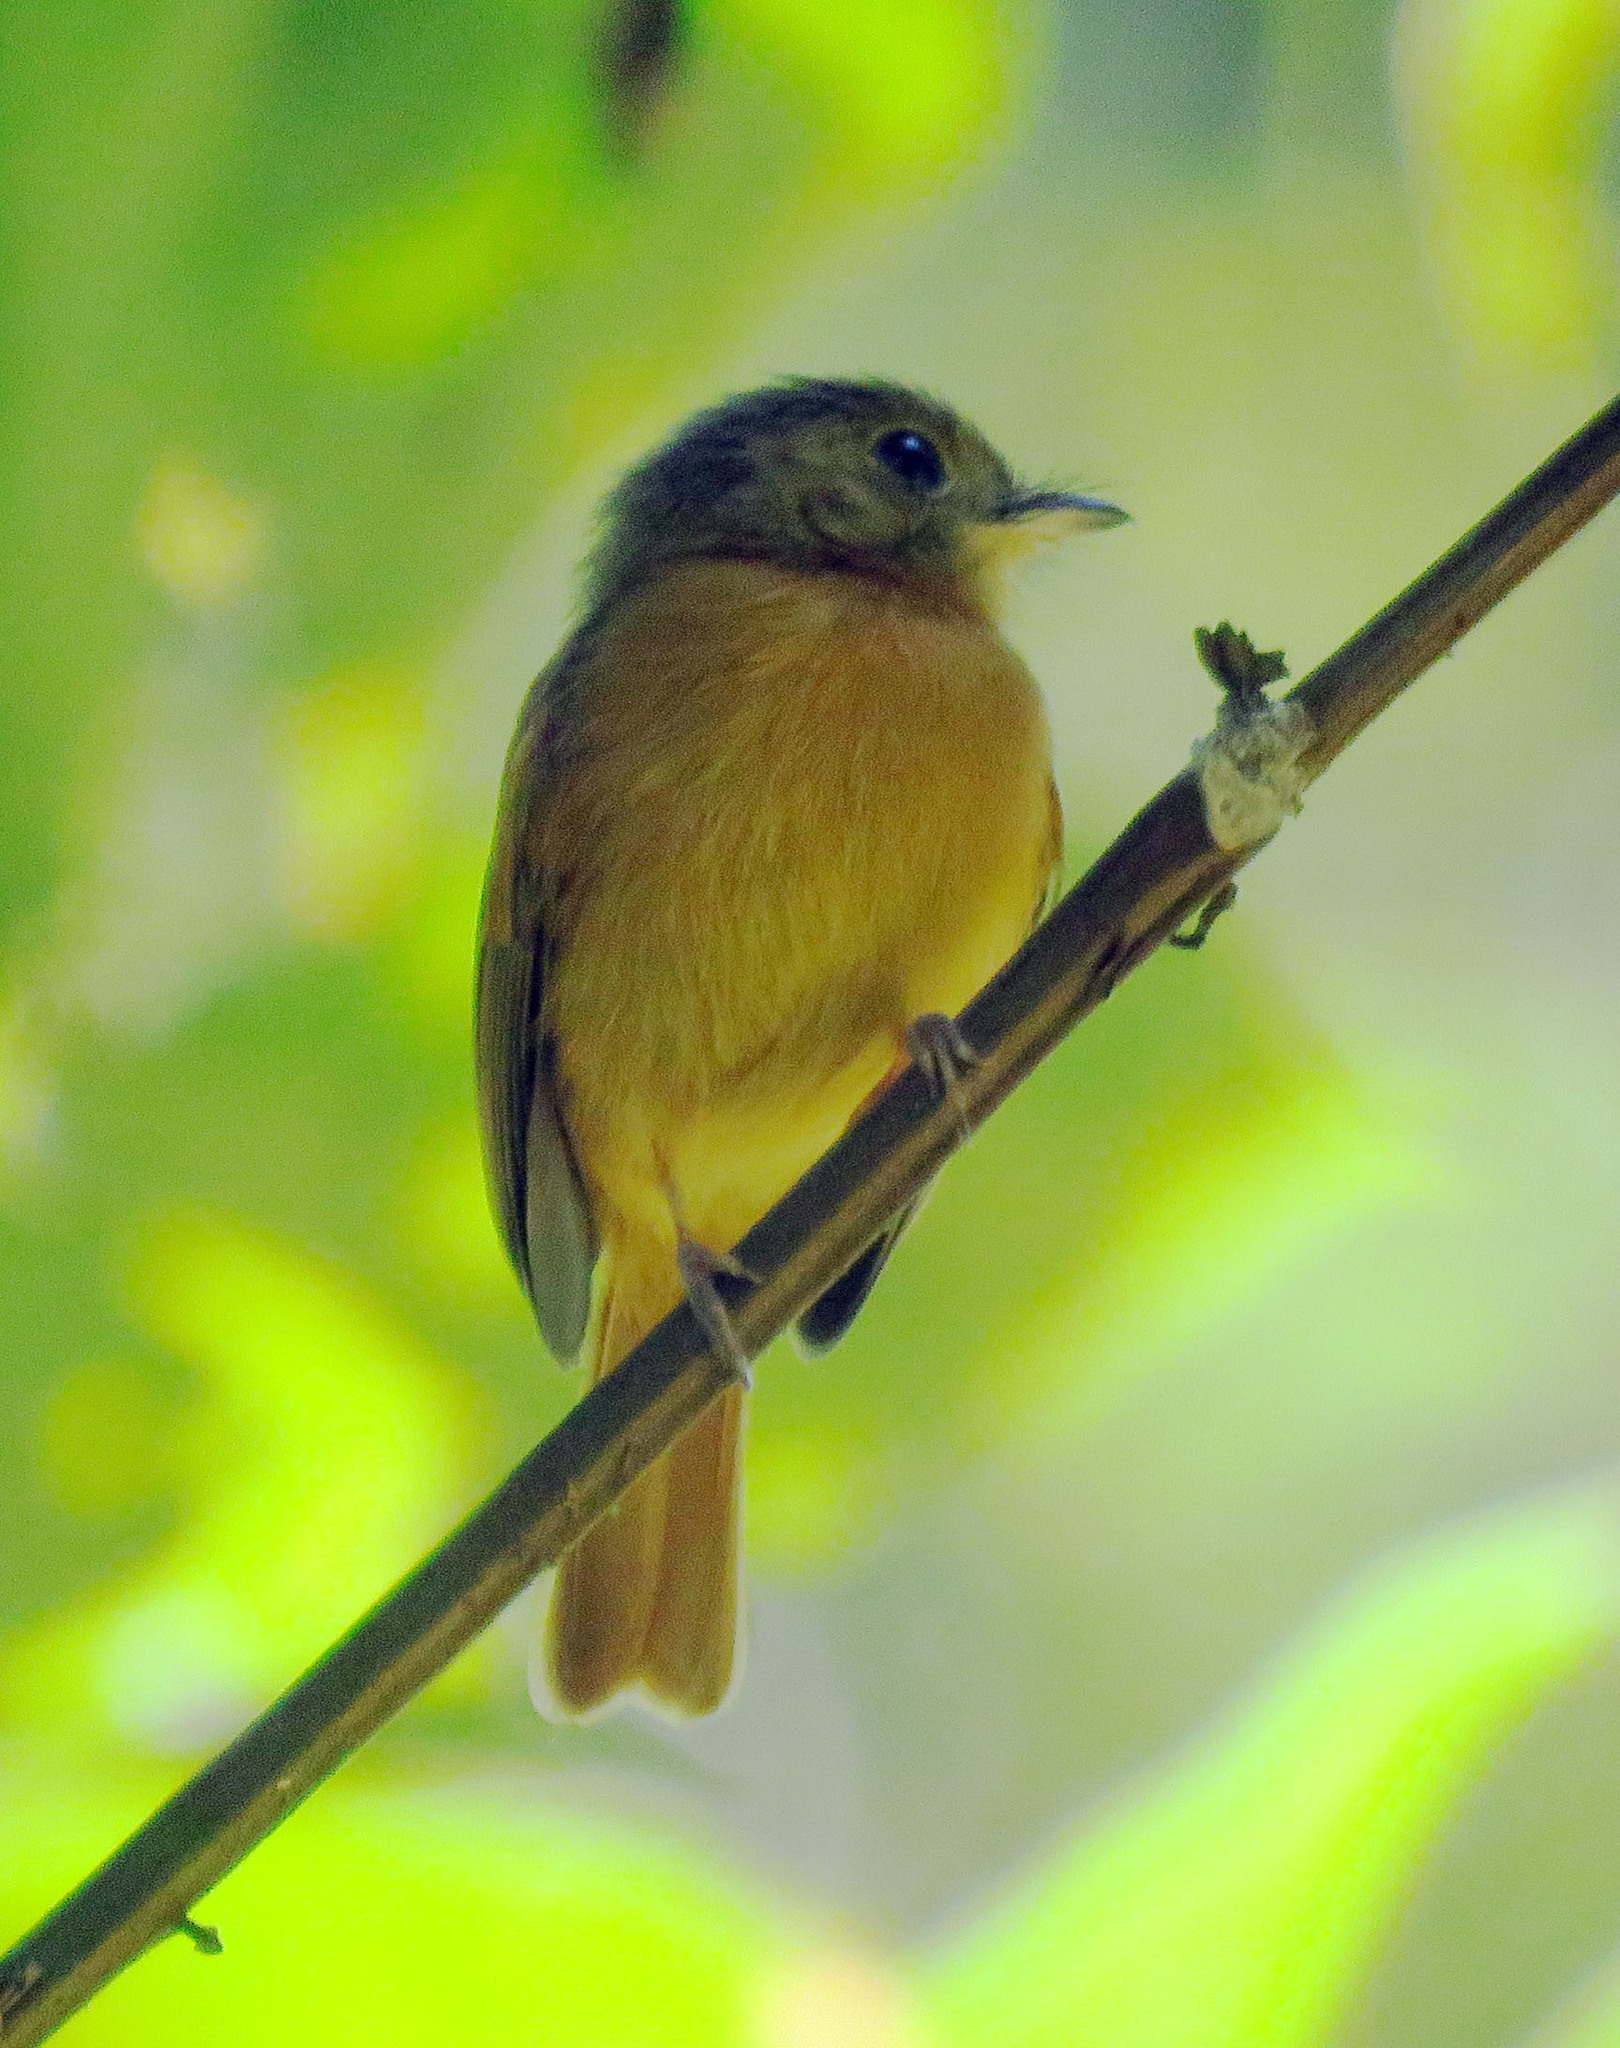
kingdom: Animalia
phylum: Chordata
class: Aves
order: Passeriformes
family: Tyrannidae
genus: Terenotriccus
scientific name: Terenotriccus erythrurus
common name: Ruddy-tailed flycatcher
